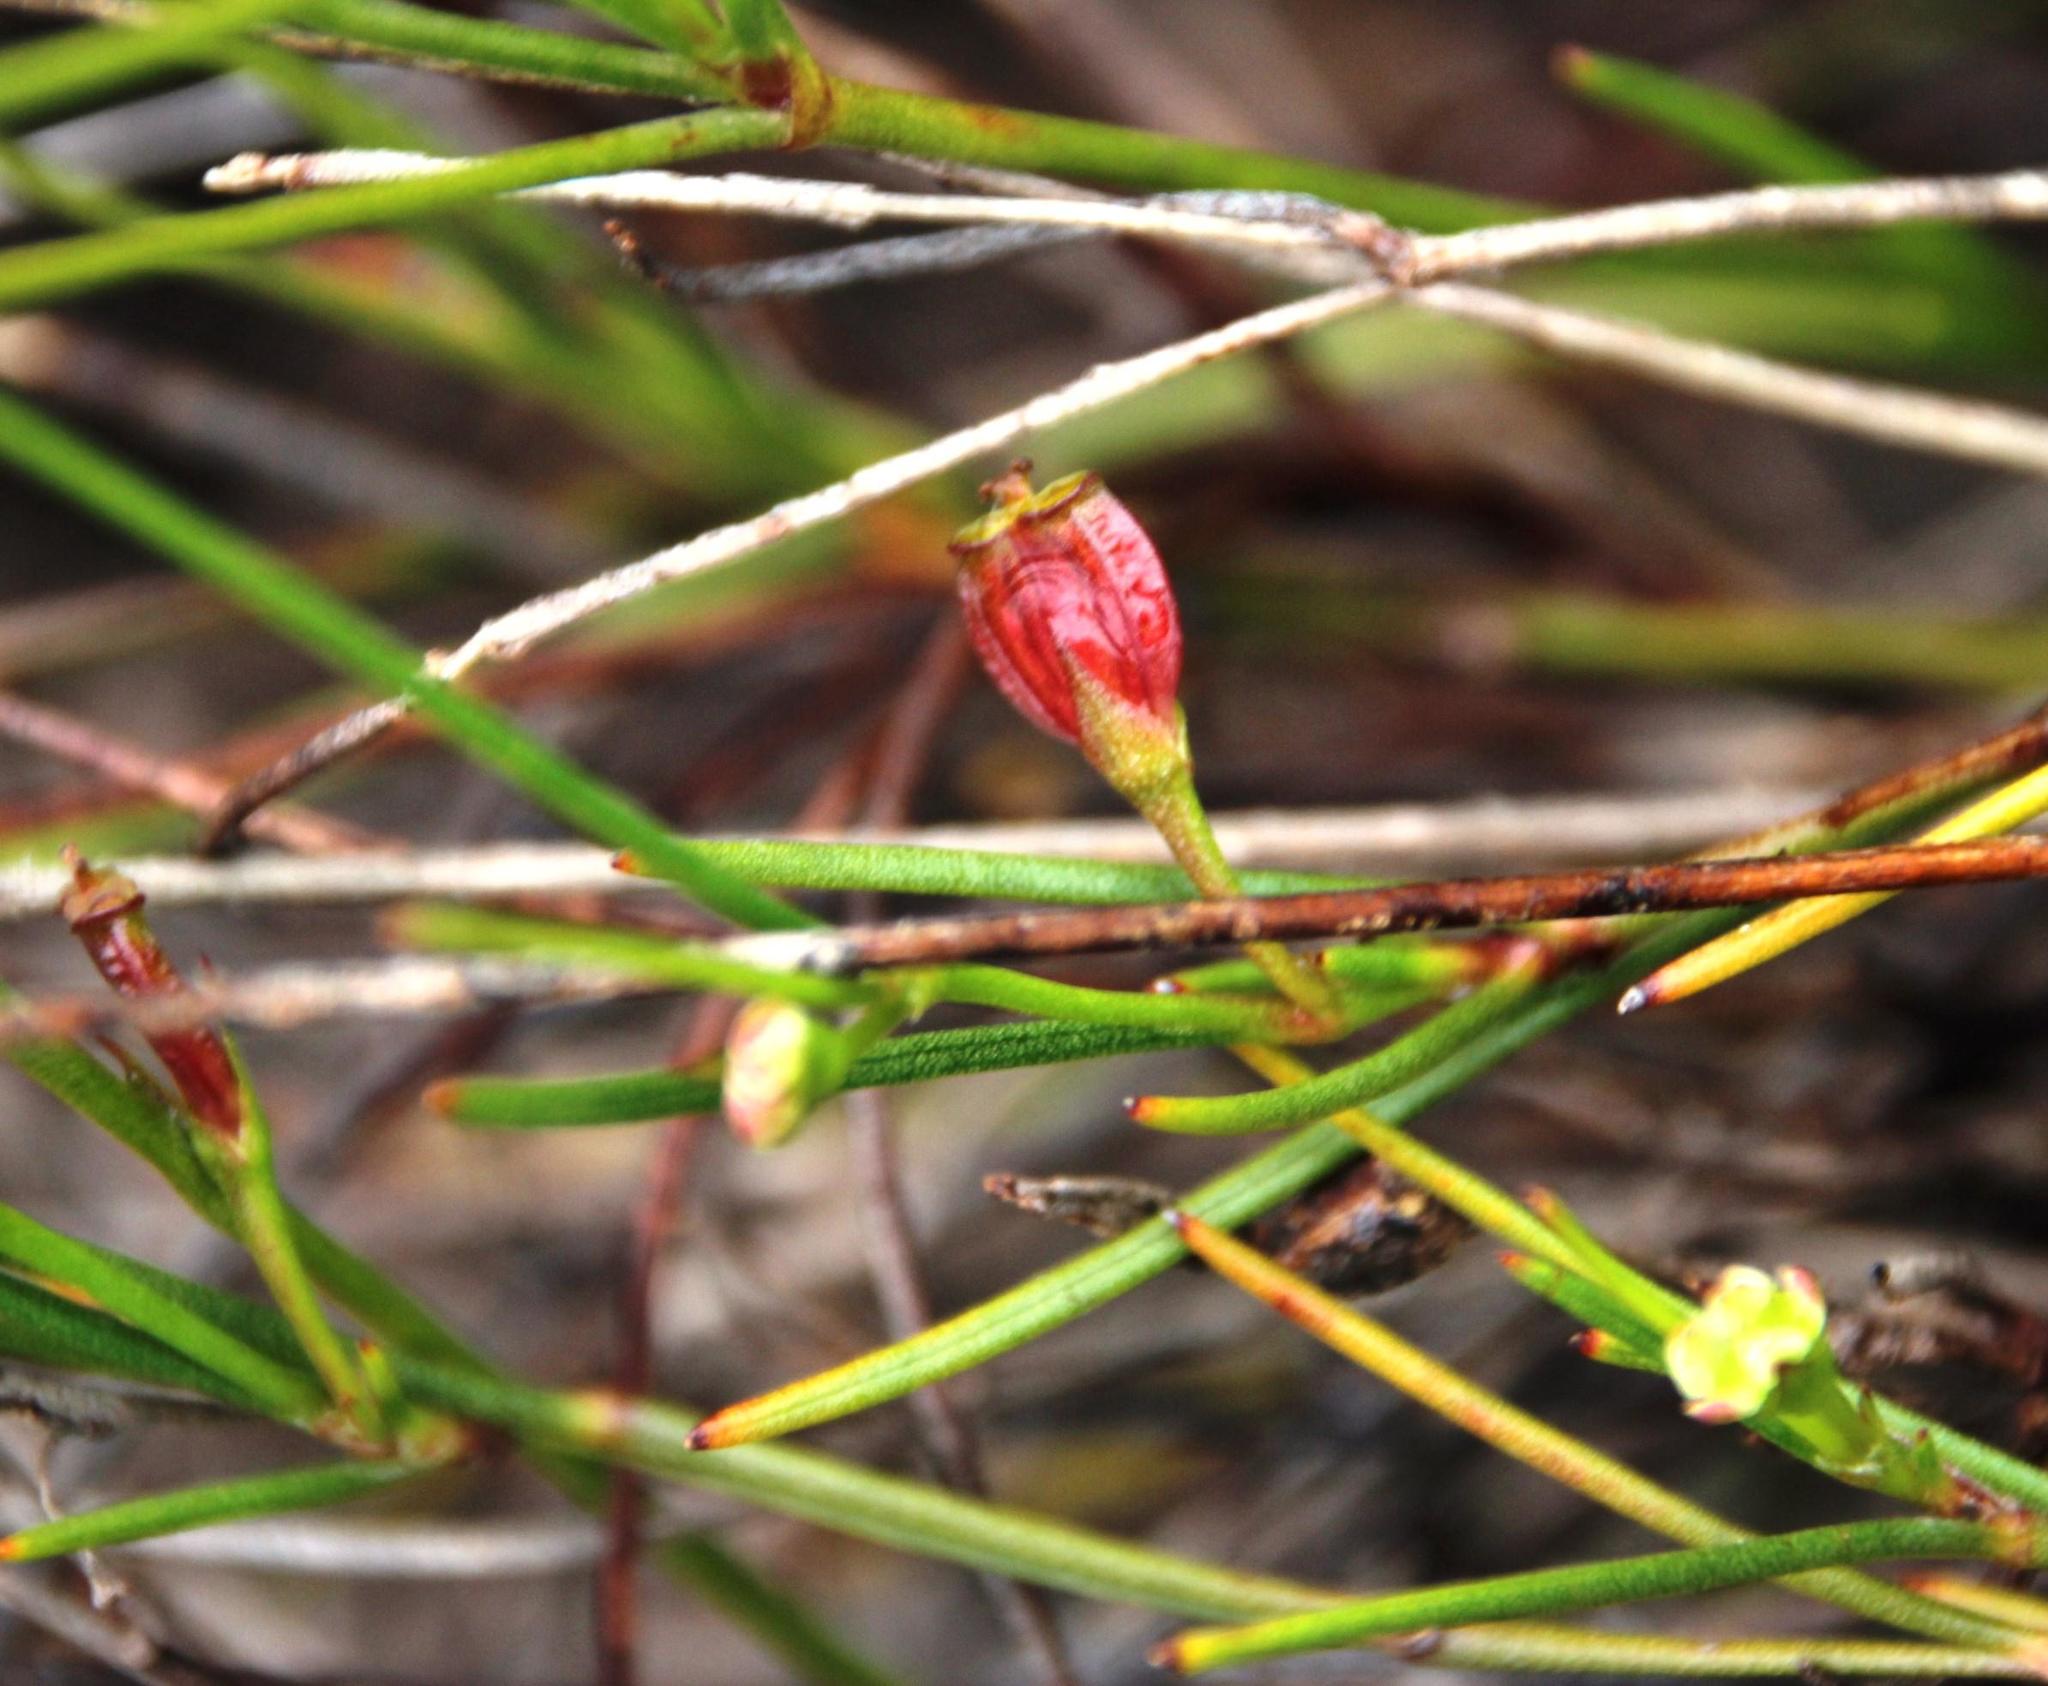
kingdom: Plantae
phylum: Tracheophyta
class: Magnoliopsida
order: Apiales
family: Apiaceae
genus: Centella
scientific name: Centella macrocarpa
